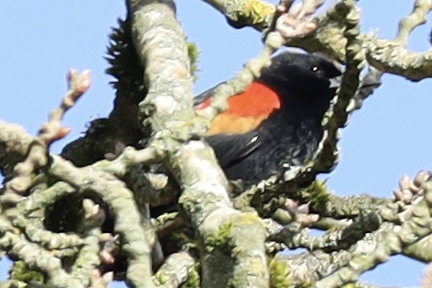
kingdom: Animalia
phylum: Chordata
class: Aves
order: Passeriformes
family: Icteridae
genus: Agelaius
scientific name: Agelaius phoeniceus
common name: Red-winged blackbird
